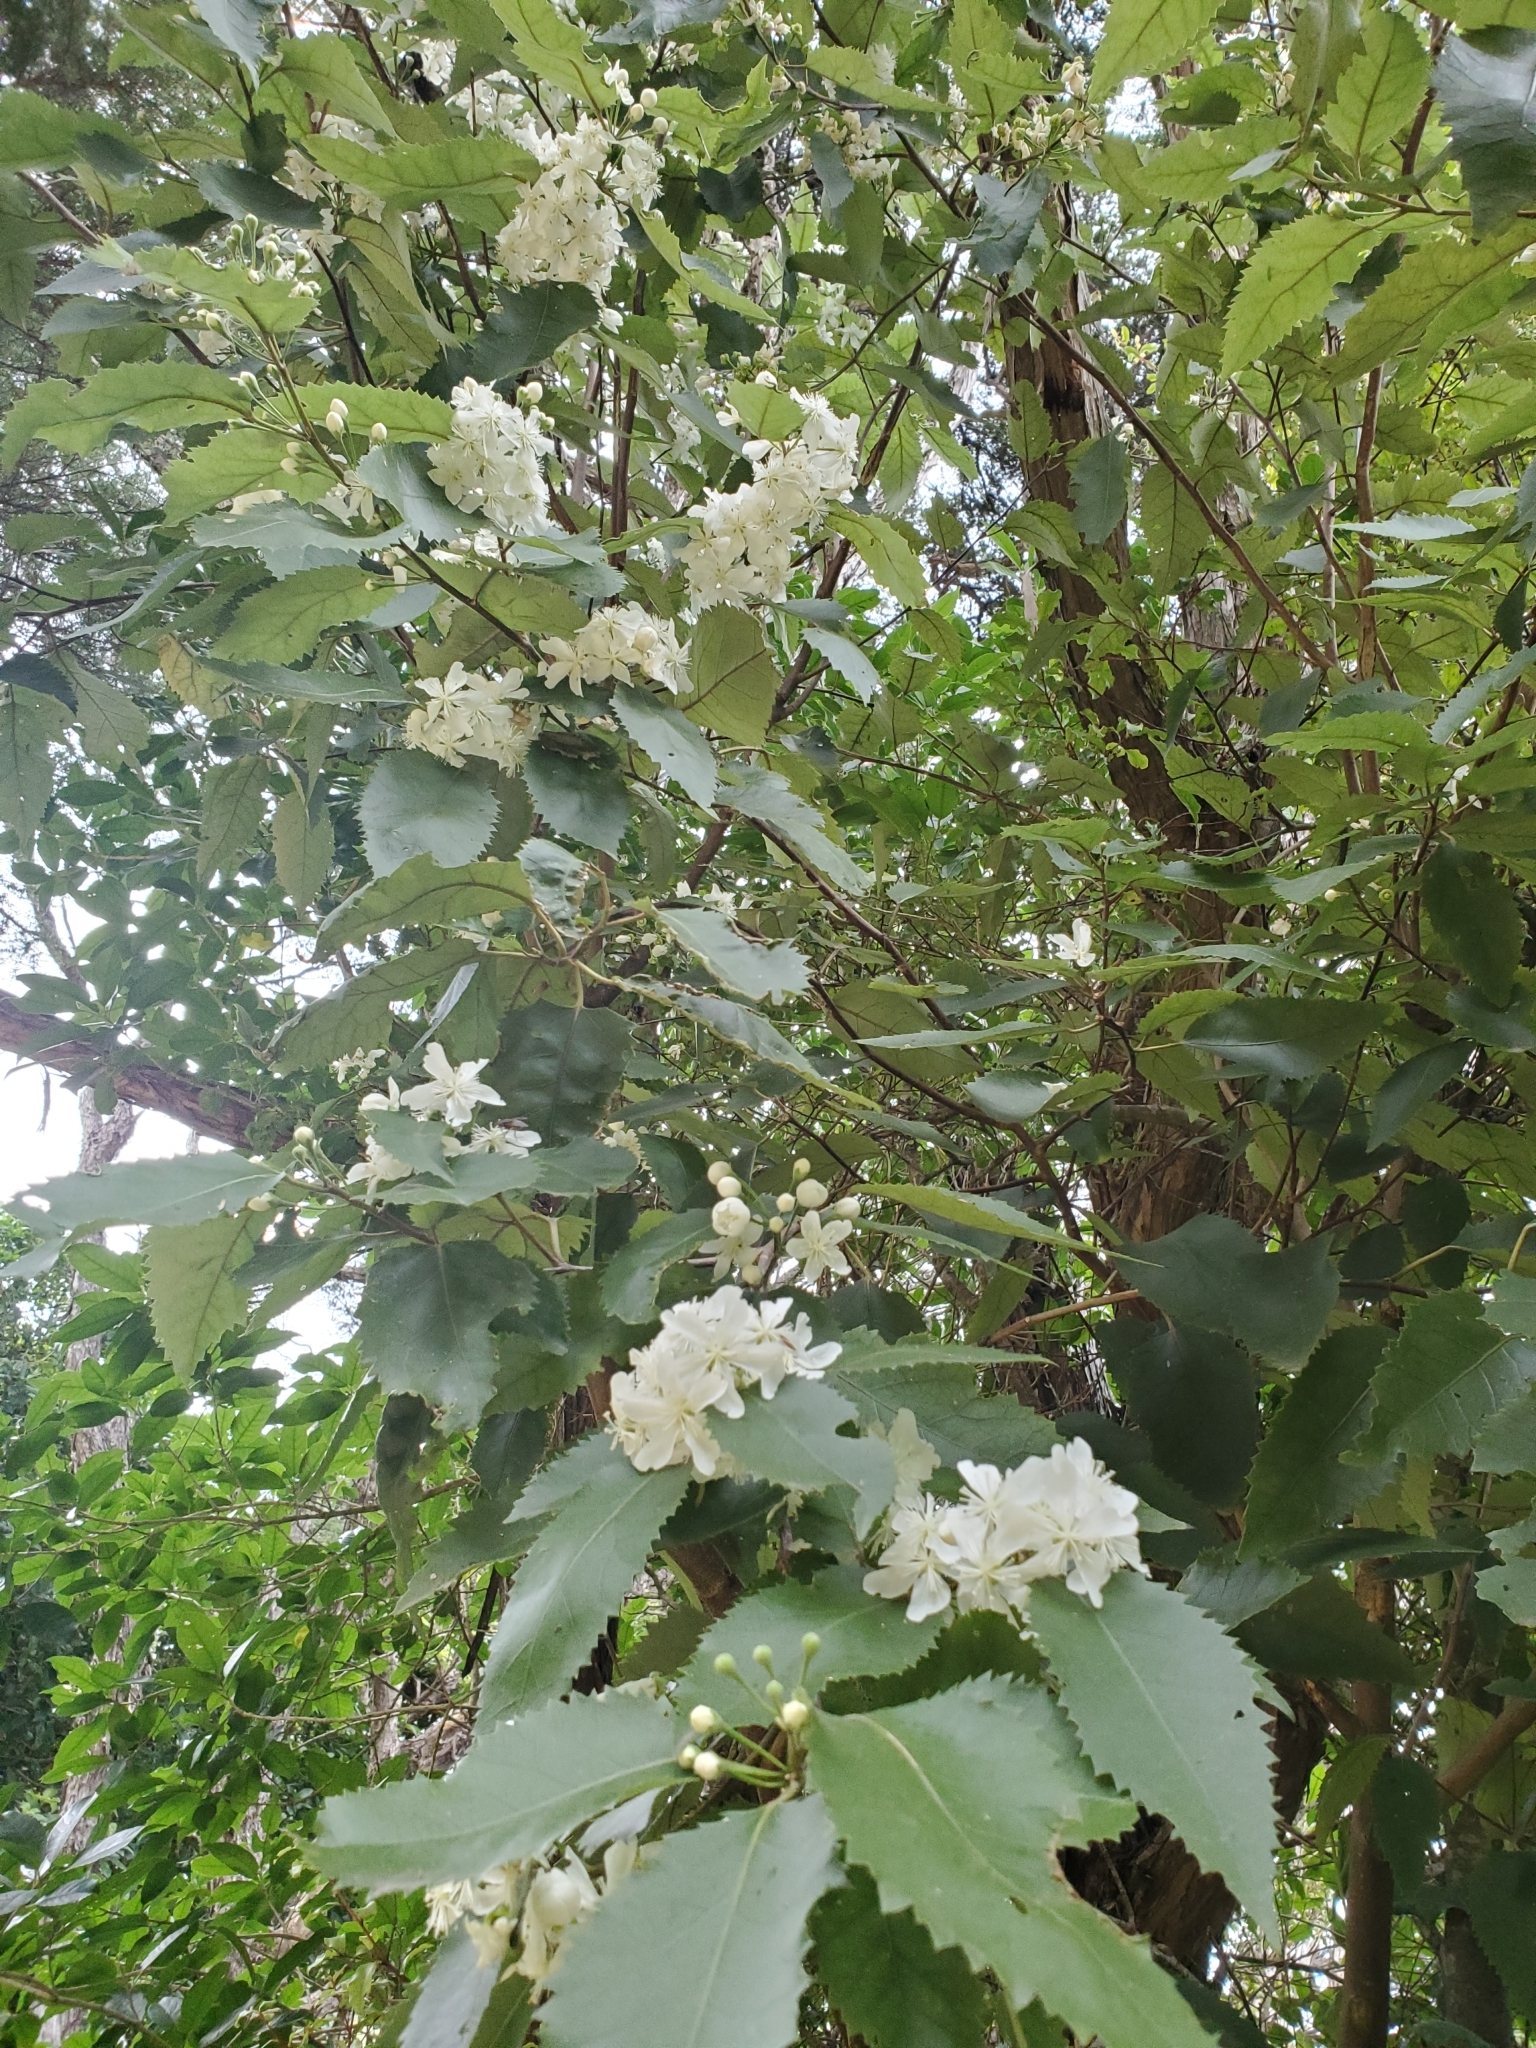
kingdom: Plantae
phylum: Tracheophyta
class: Magnoliopsida
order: Malvales
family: Malvaceae
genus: Hoheria
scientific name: Hoheria populnea
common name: Lacebark
